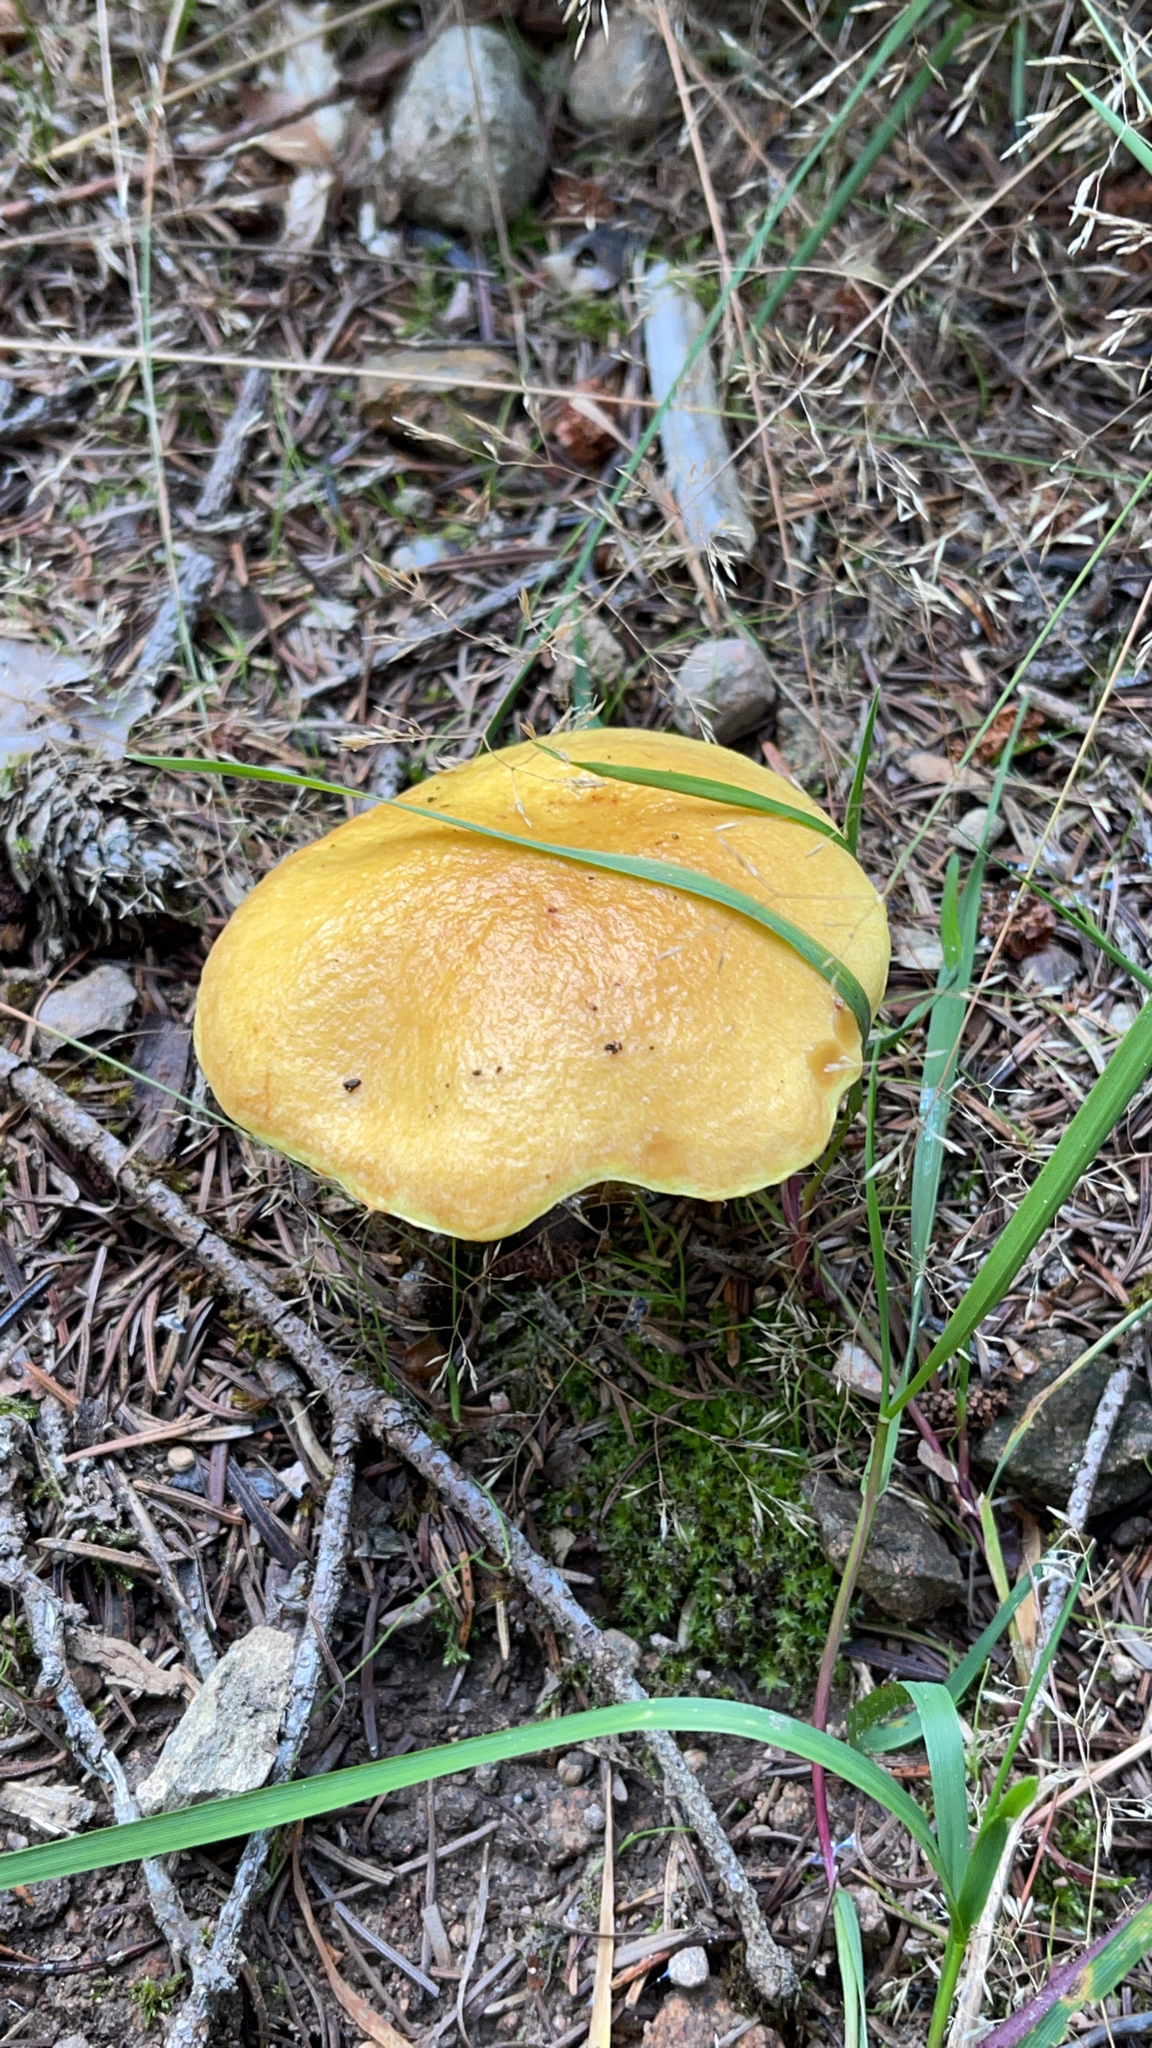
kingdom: Fungi
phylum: Basidiomycota
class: Agaricomycetes
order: Boletales
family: Suillaceae
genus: Suillus
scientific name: Suillus grevillei
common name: Larch bolete
